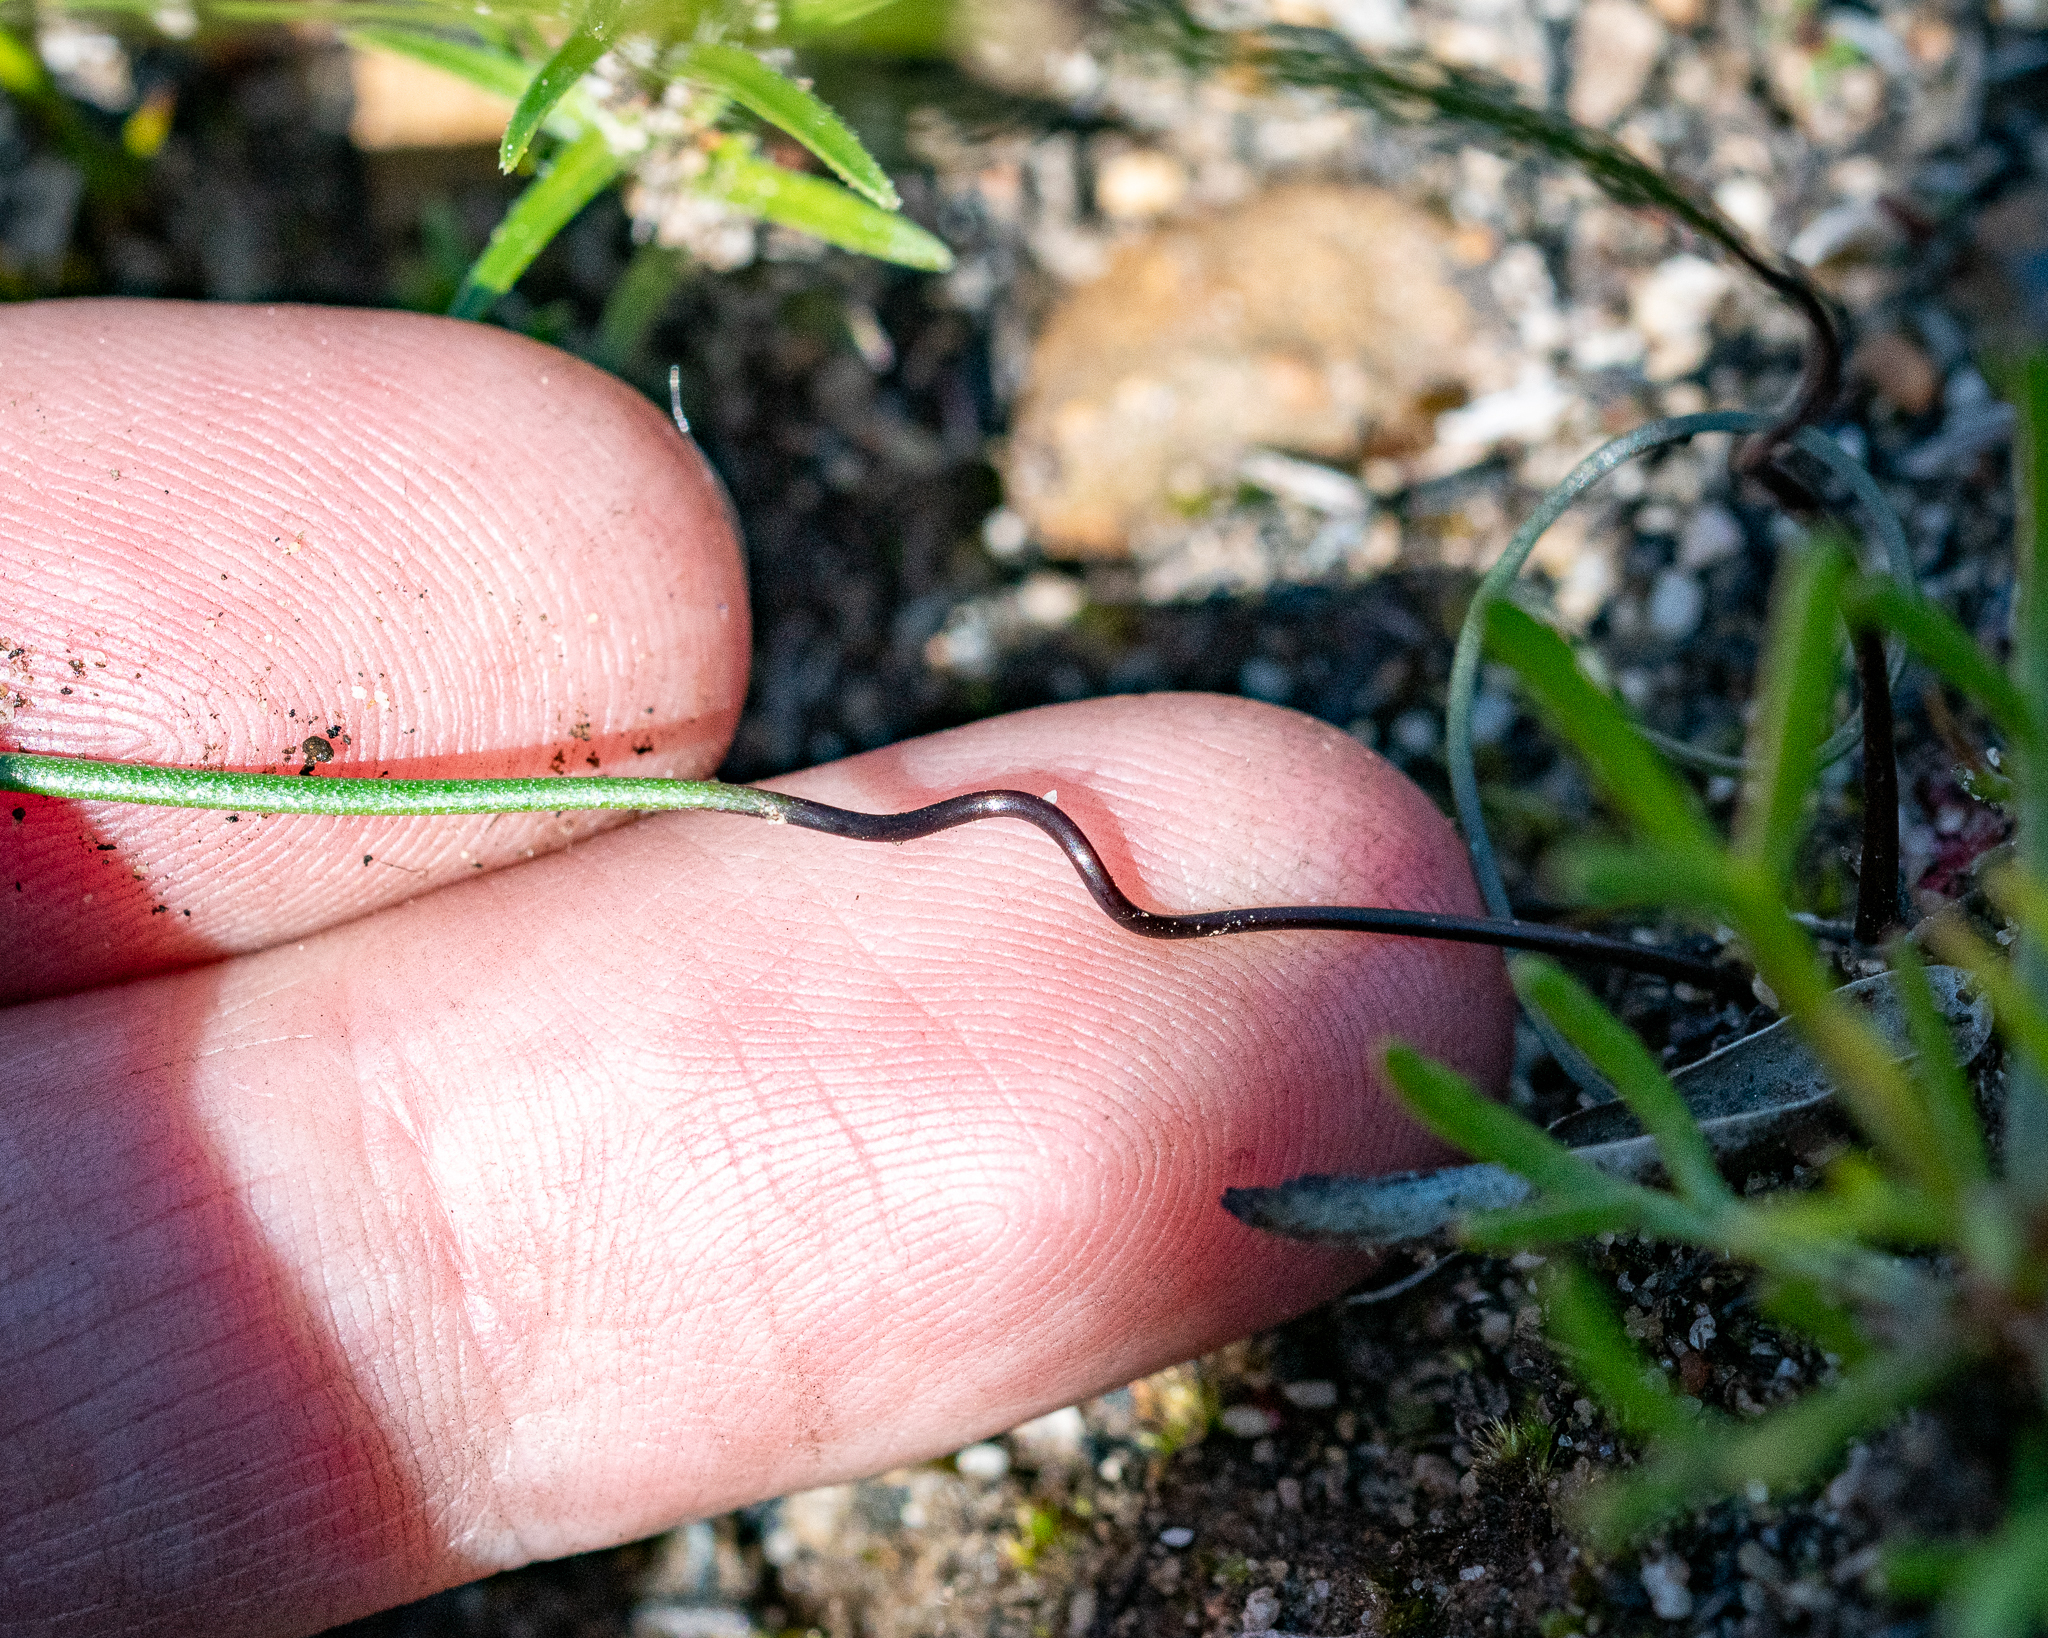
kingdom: Plantae
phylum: Tracheophyta
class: Liliopsida
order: Asparagales
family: Amaryllidaceae
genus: Strumaria
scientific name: Strumaria spiralis
